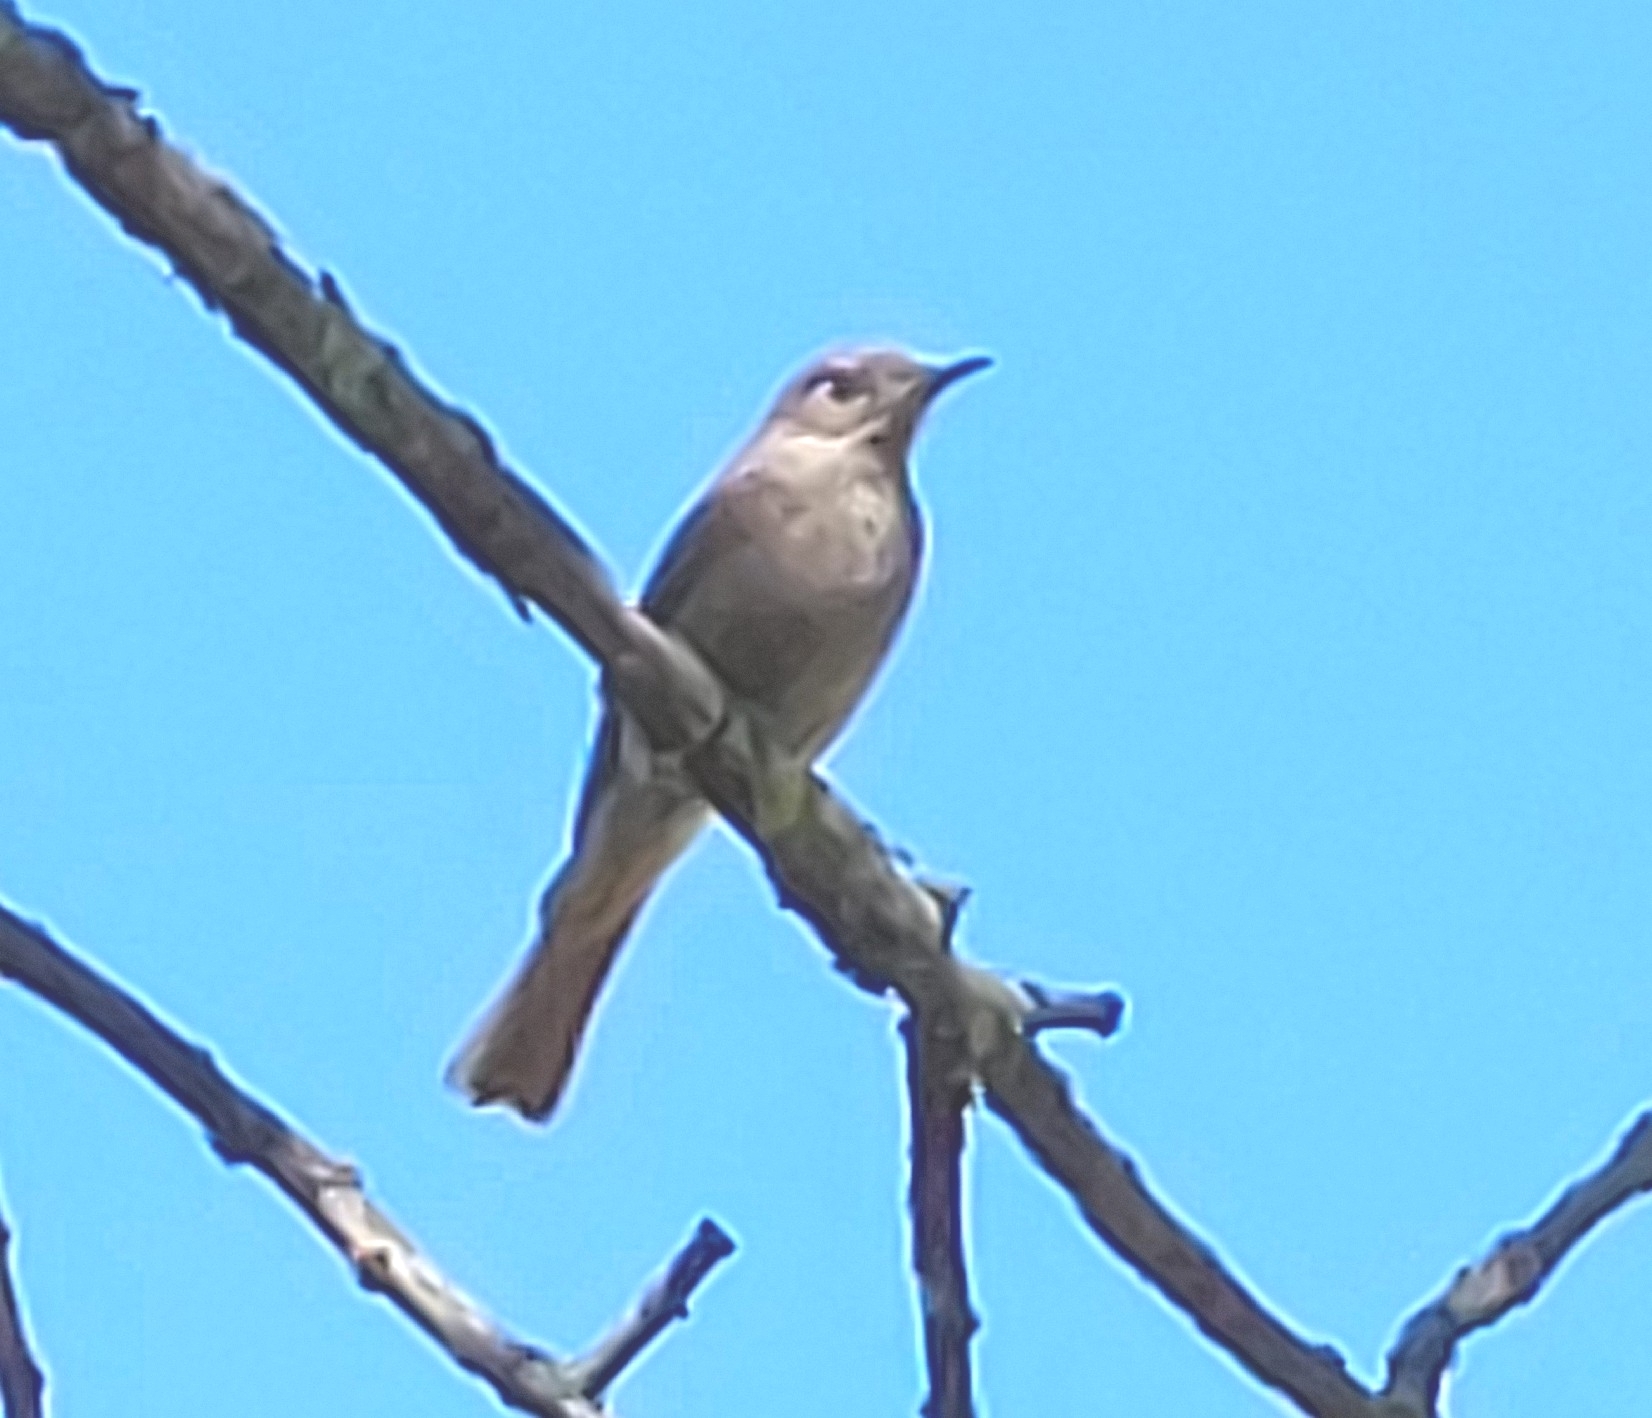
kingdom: Animalia
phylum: Chordata
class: Aves
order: Passeriformes
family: Muscicapidae
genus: Phoenicurus
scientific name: Phoenicurus ochruros
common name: Black redstart
